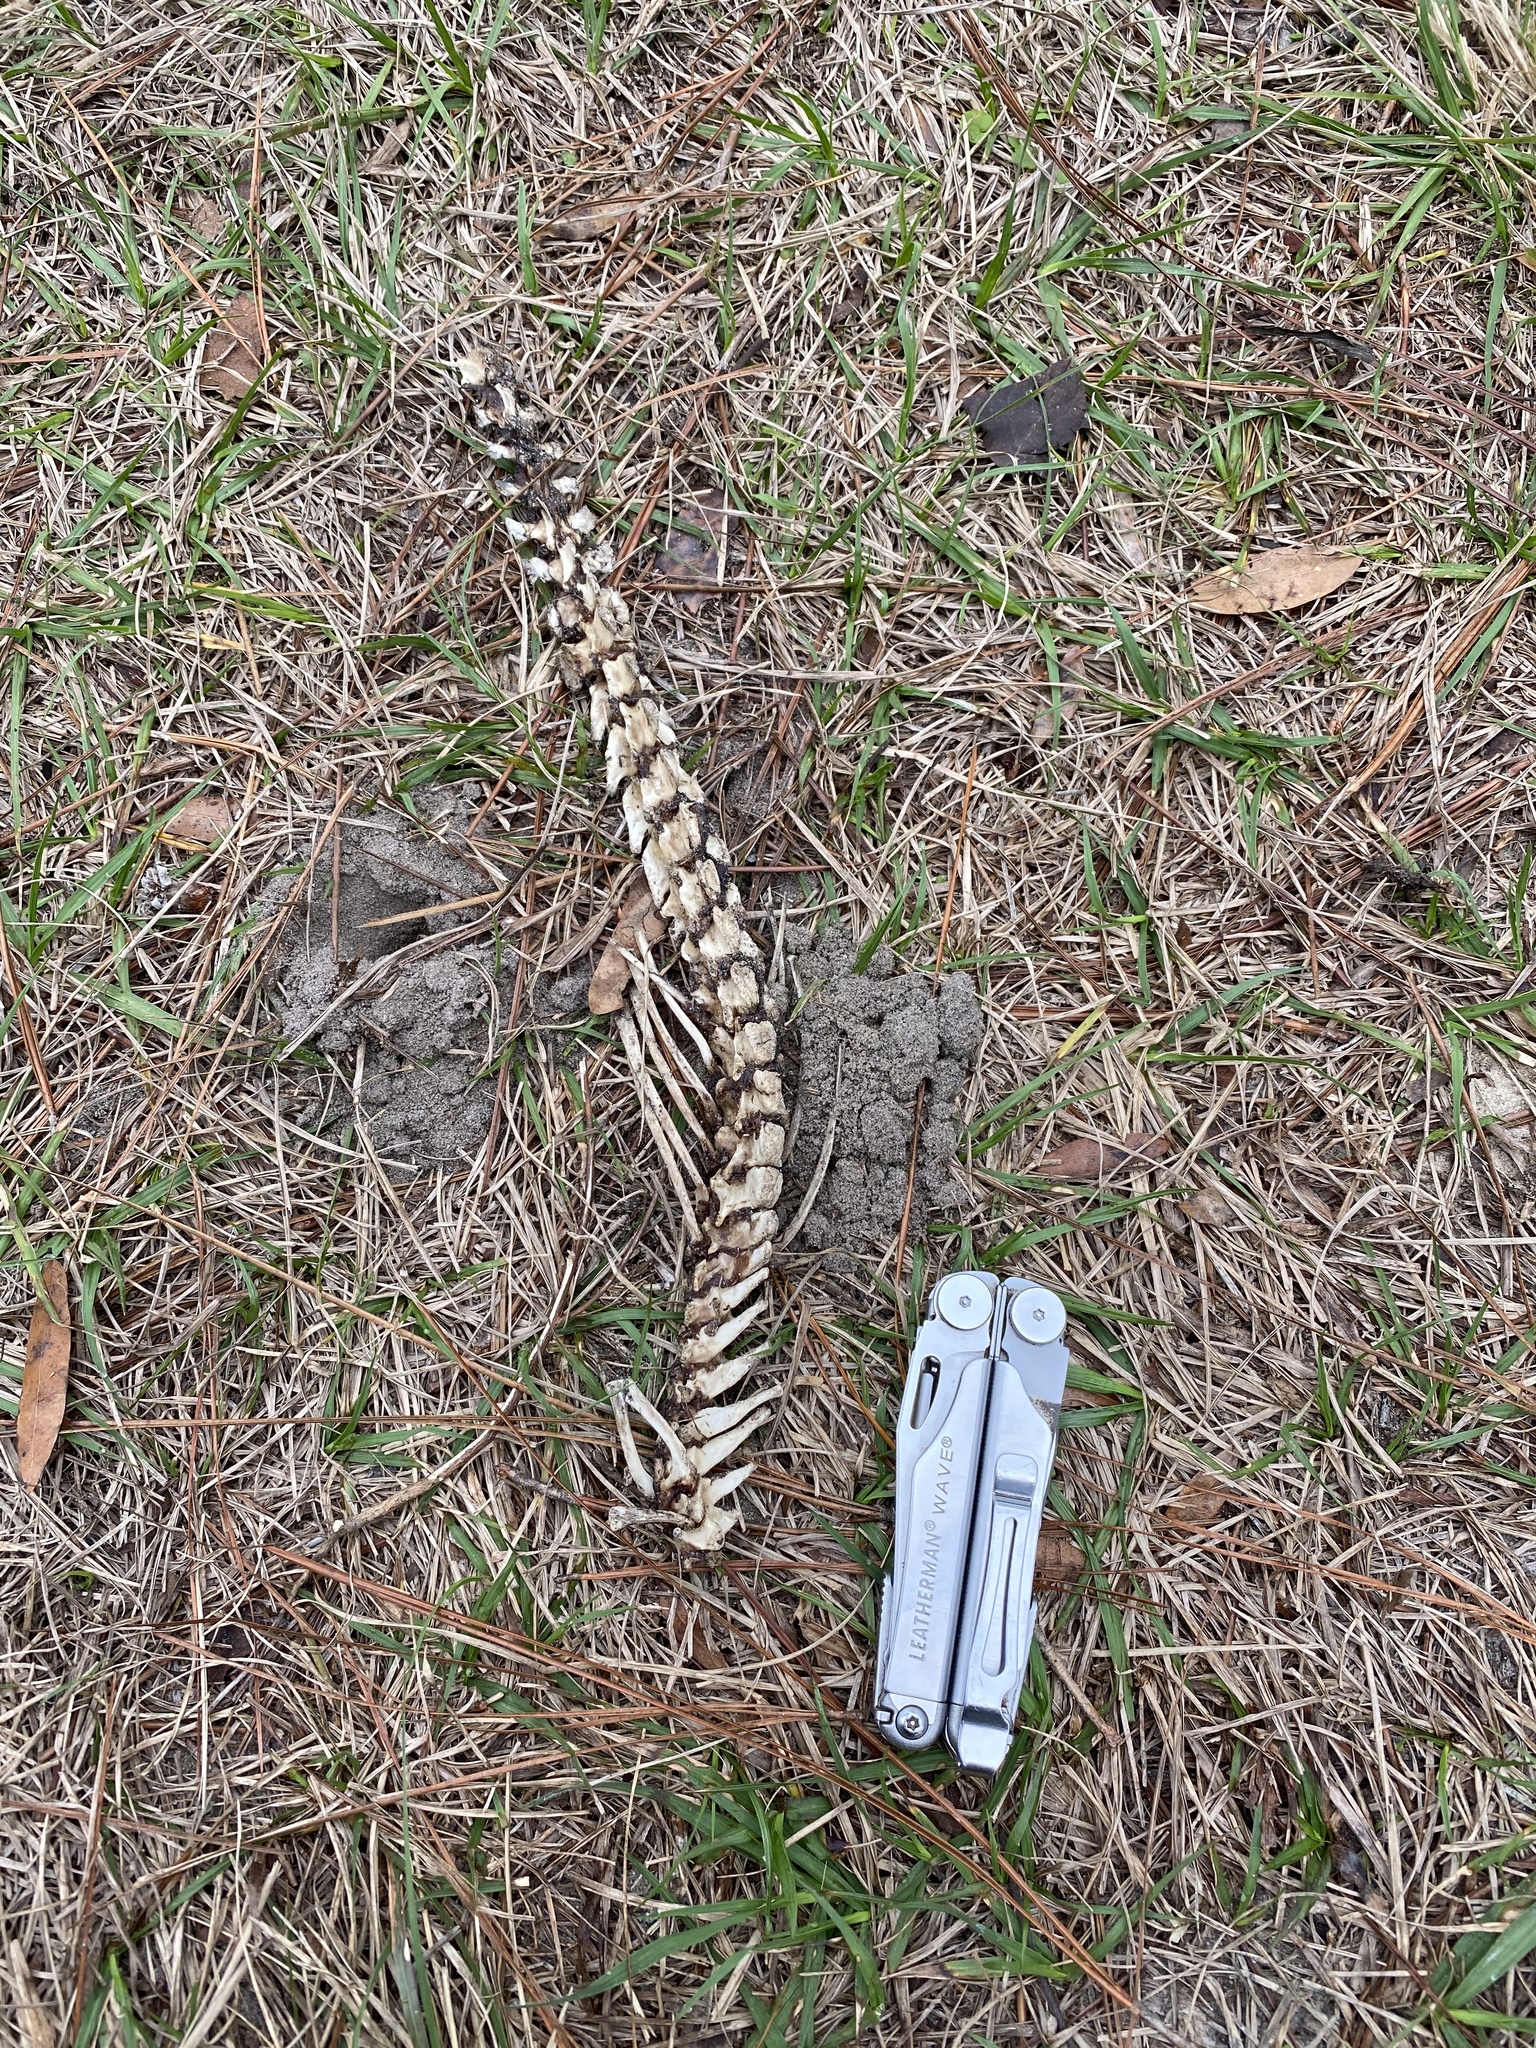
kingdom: Animalia
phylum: Chordata
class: Mammalia
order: Didelphimorphia
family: Didelphidae
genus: Didelphis
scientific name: Didelphis virginiana
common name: Virginia opossum
